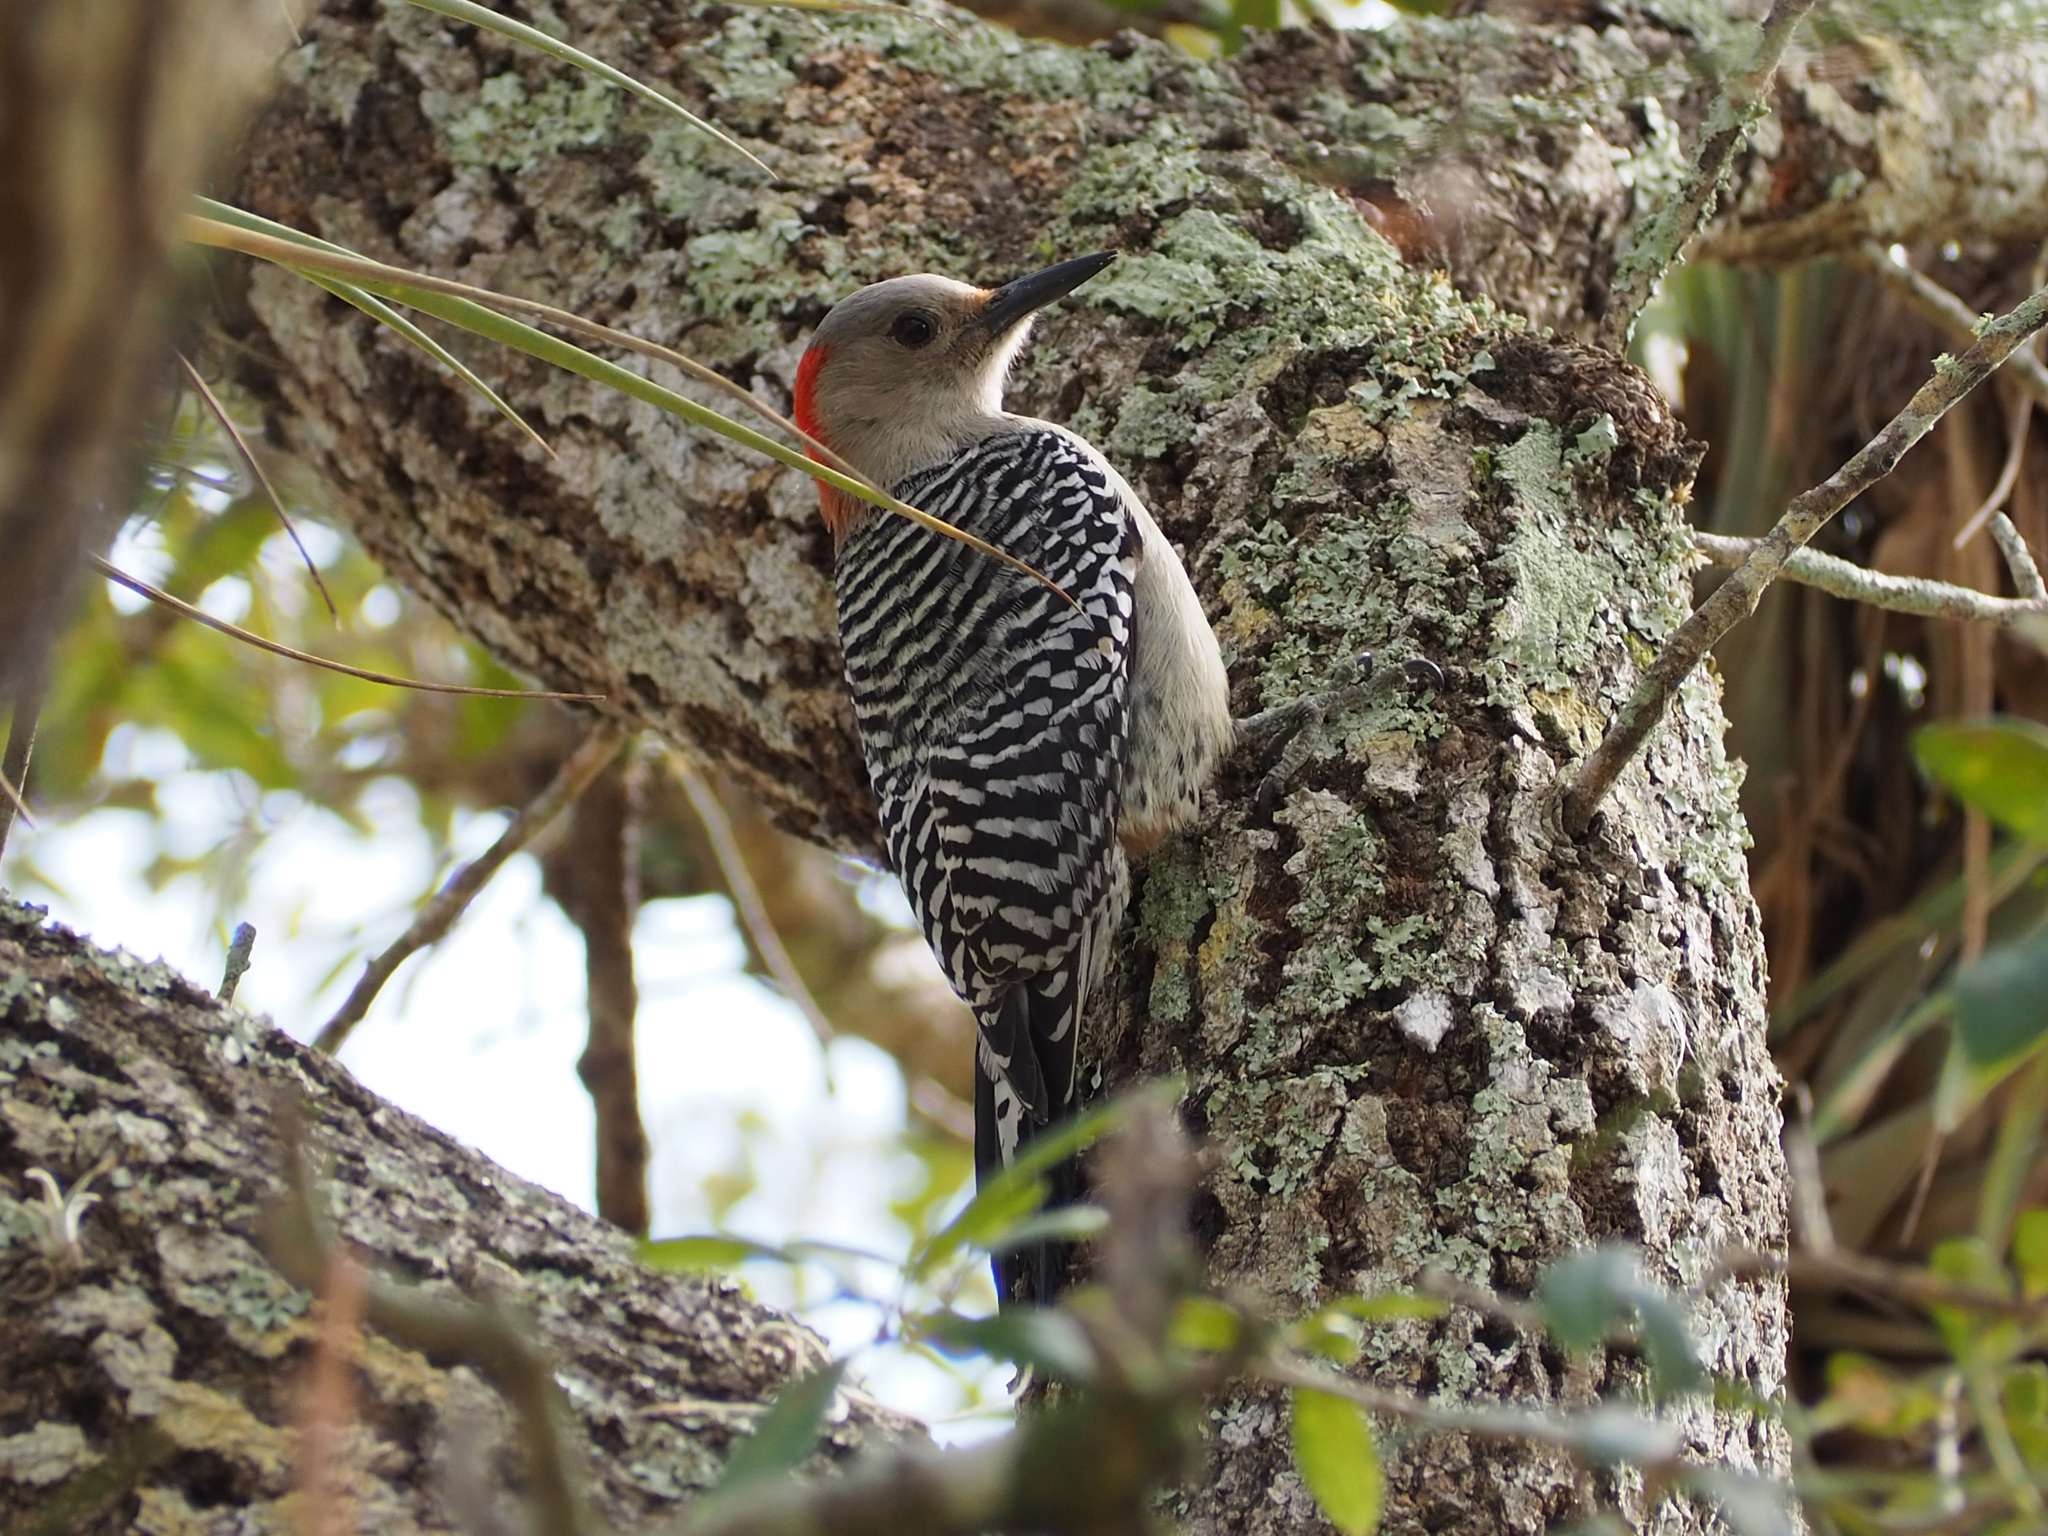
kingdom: Animalia
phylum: Chordata
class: Aves
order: Piciformes
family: Picidae
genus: Melanerpes
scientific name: Melanerpes carolinus
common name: Red-bellied woodpecker
